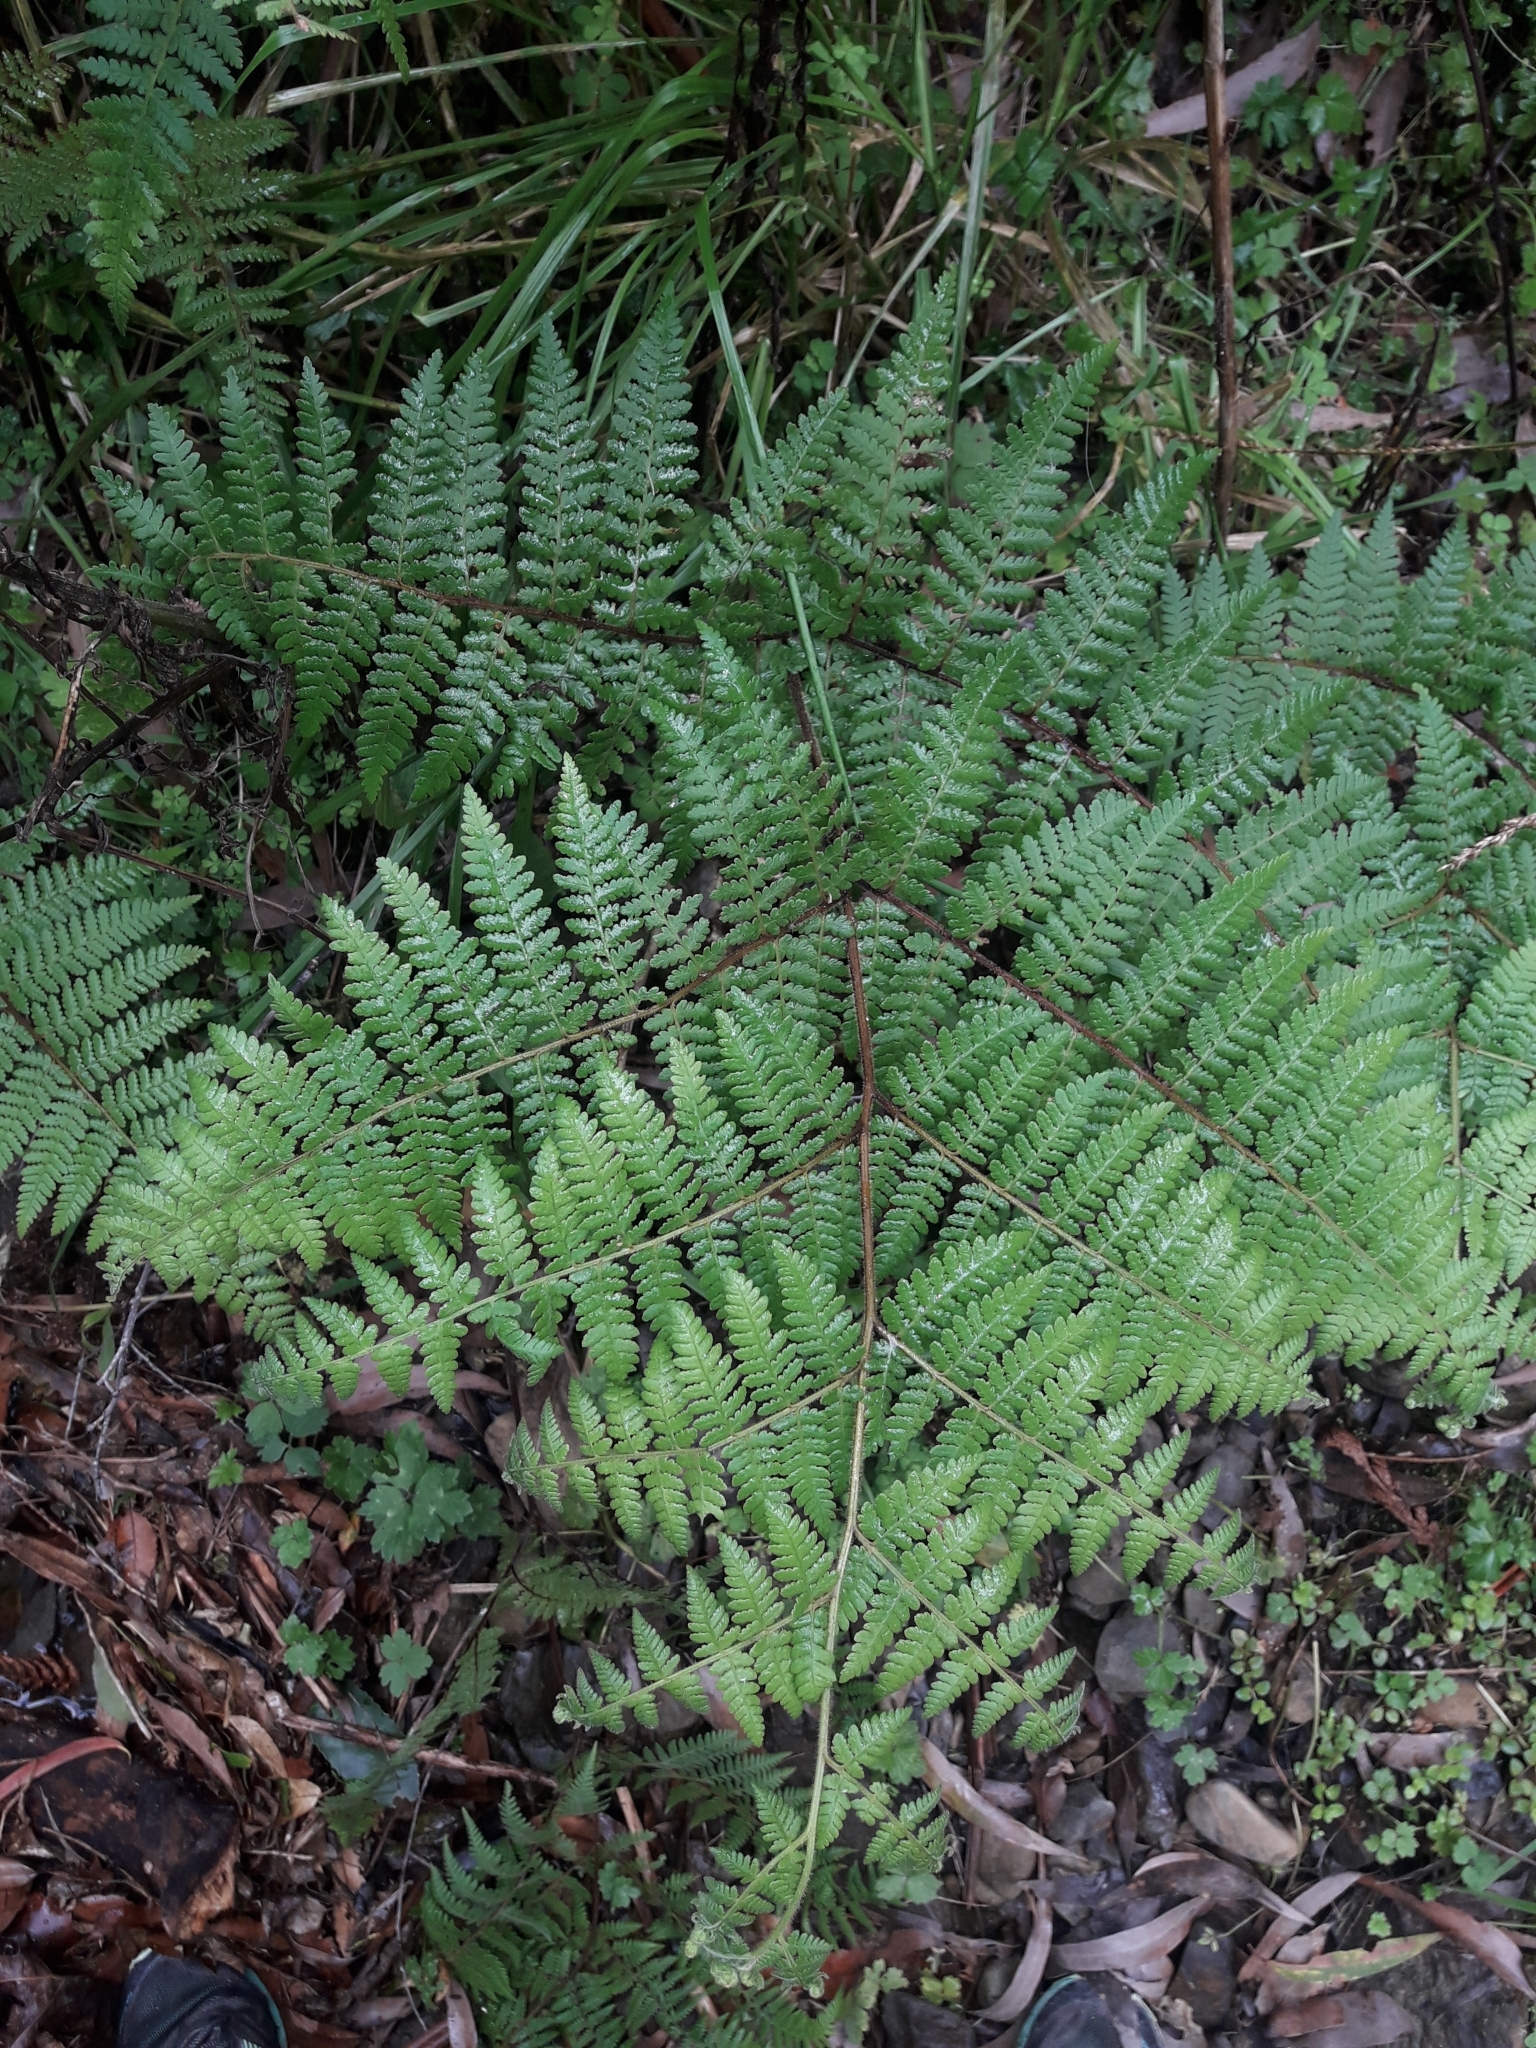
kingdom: Plantae
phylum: Tracheophyta
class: Polypodiopsida
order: Polypodiales
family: Dennstaedtiaceae
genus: Hypolepis
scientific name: Hypolepis ambigua
